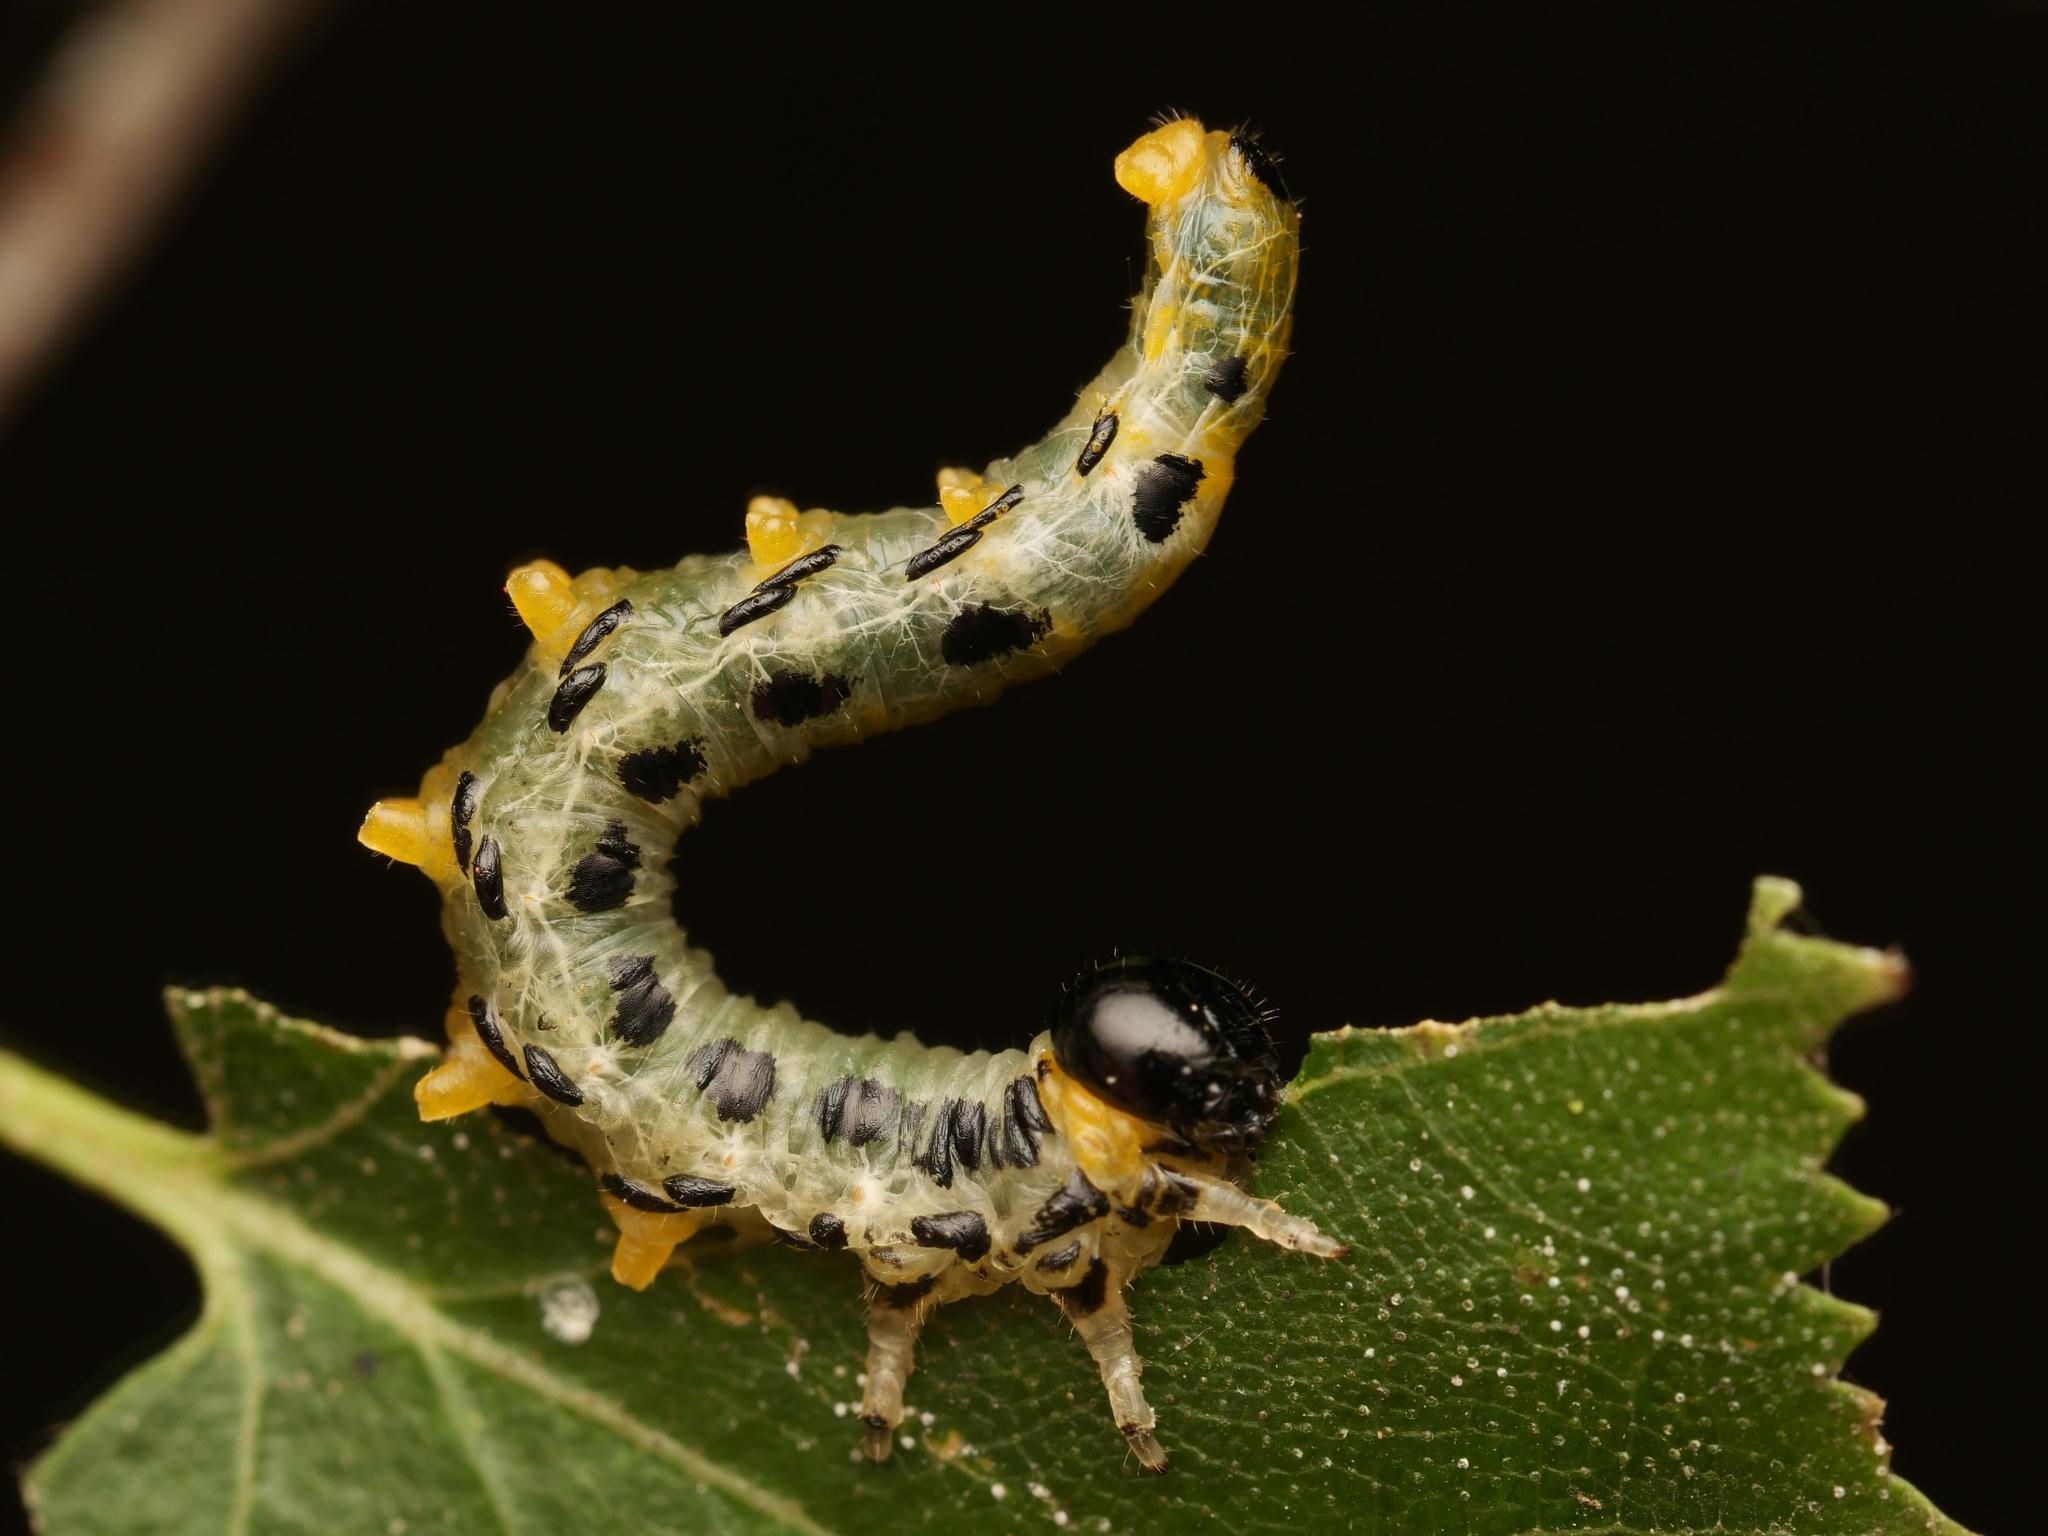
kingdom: Animalia
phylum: Arthropoda
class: Insecta
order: Hymenoptera
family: Tenthredinidae
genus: Craesus
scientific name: Craesus septentrionalis
